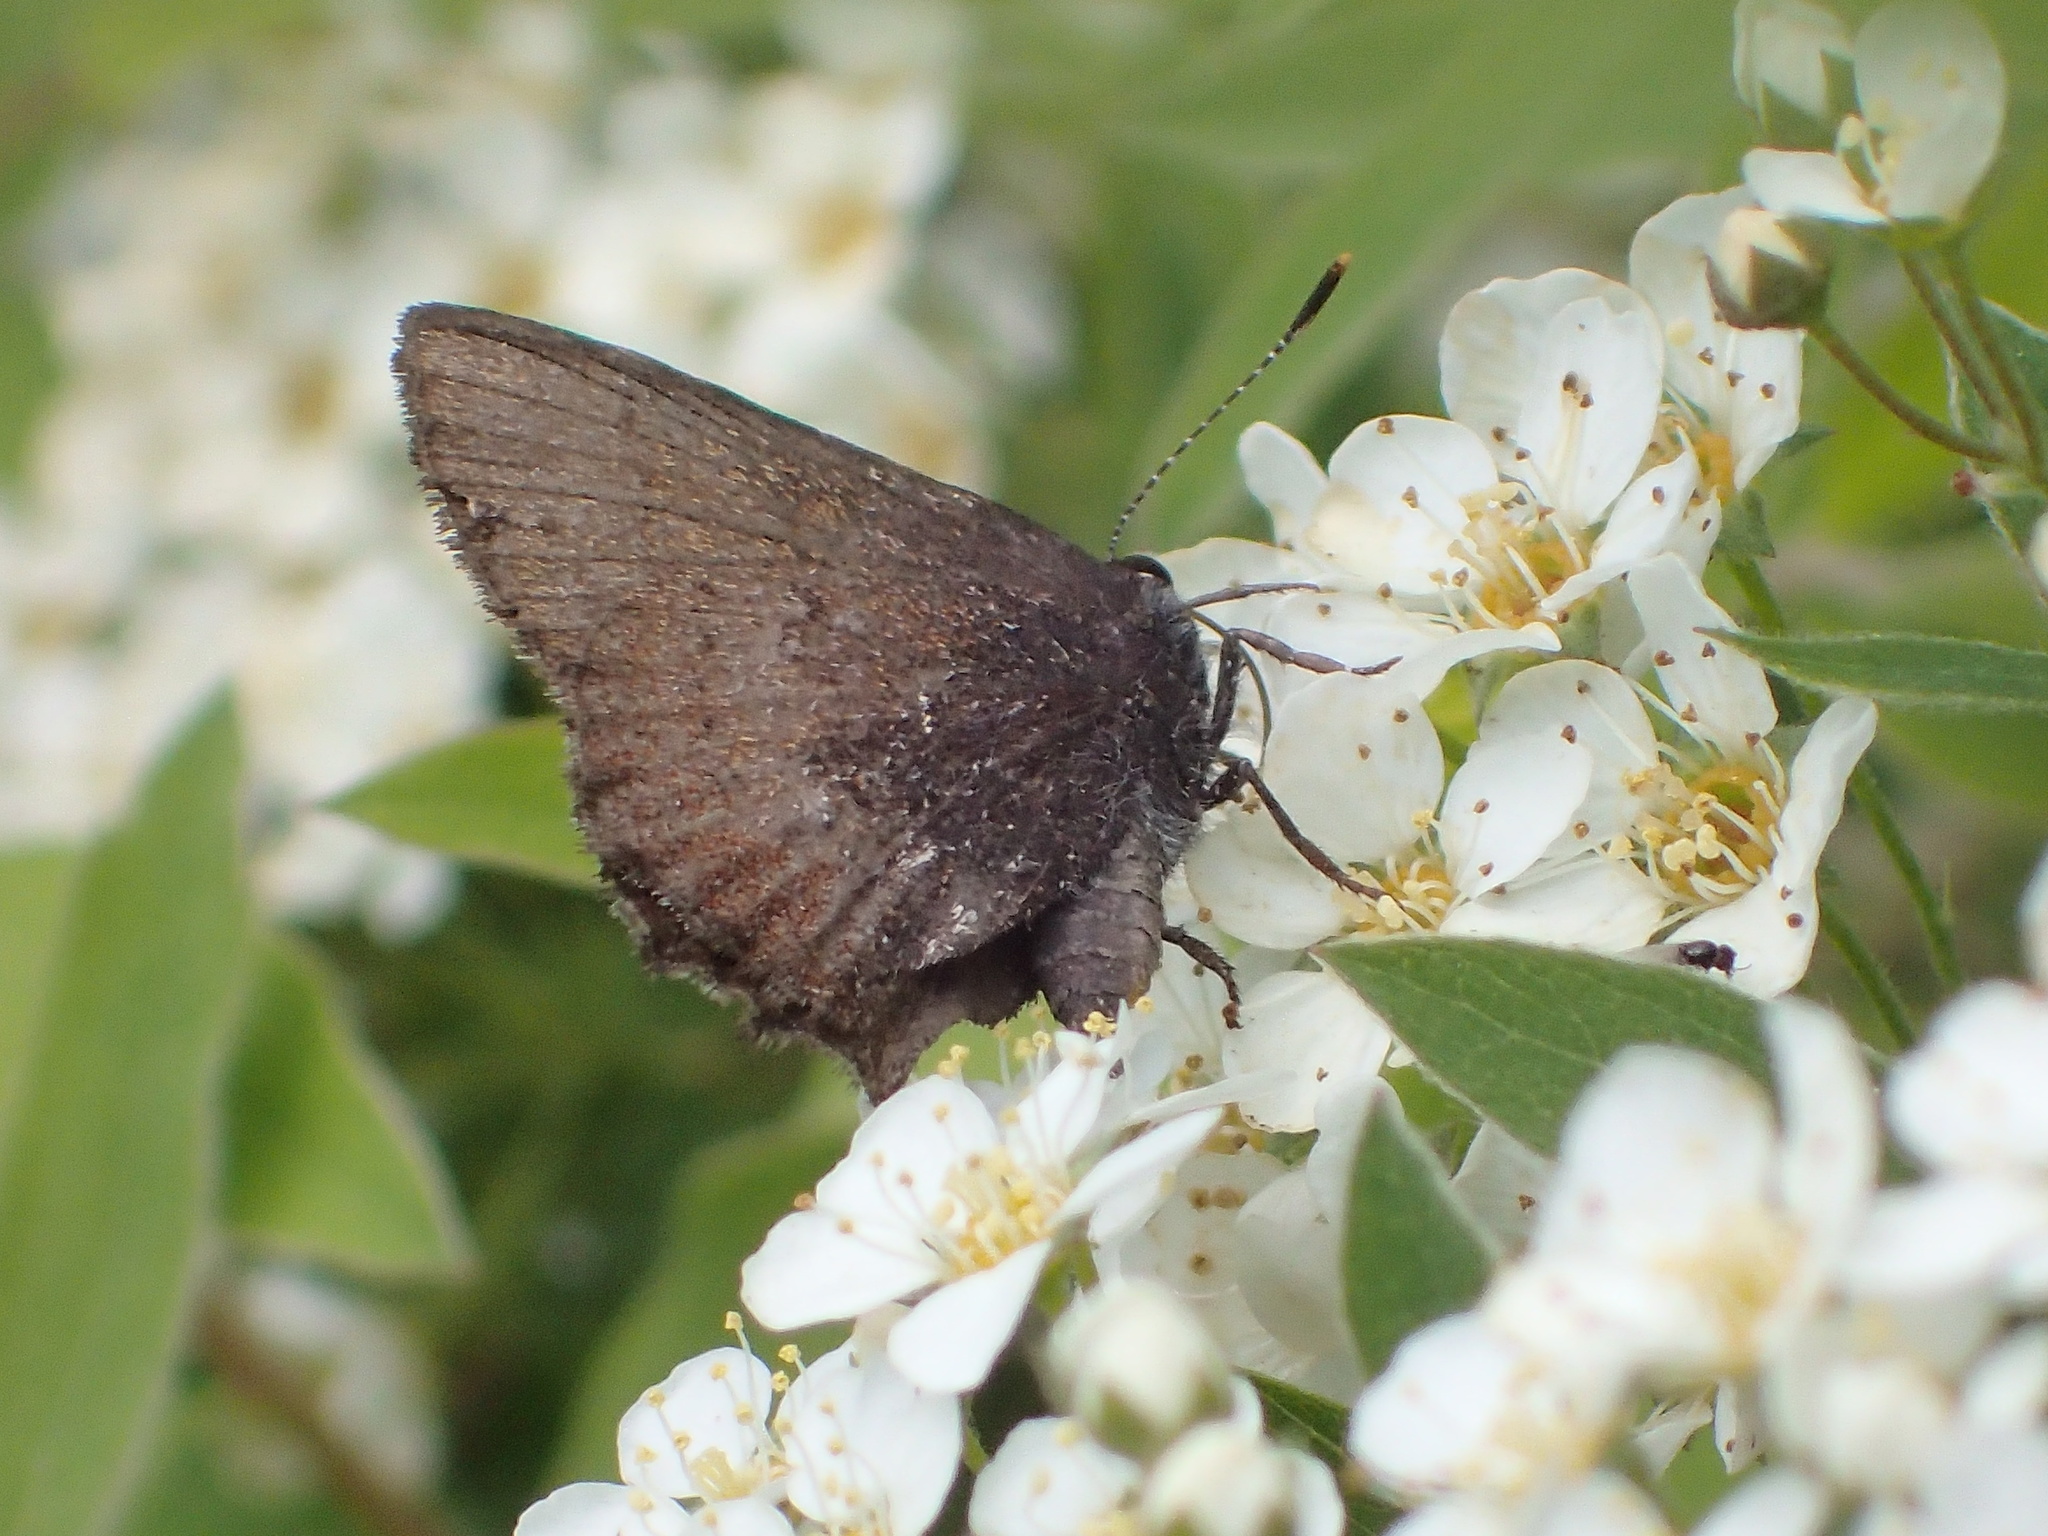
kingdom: Animalia
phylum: Arthropoda
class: Insecta
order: Lepidoptera
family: Lycaenidae
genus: Incisalia
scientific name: Incisalia irioides
